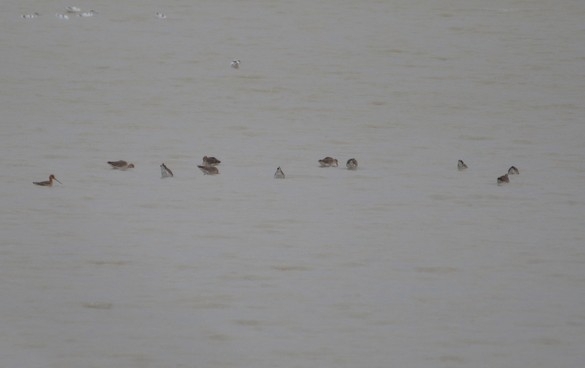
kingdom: Animalia
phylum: Chordata
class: Aves
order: Charadriiformes
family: Scolopacidae
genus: Limosa
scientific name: Limosa limosa
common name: Black-tailed godwit
